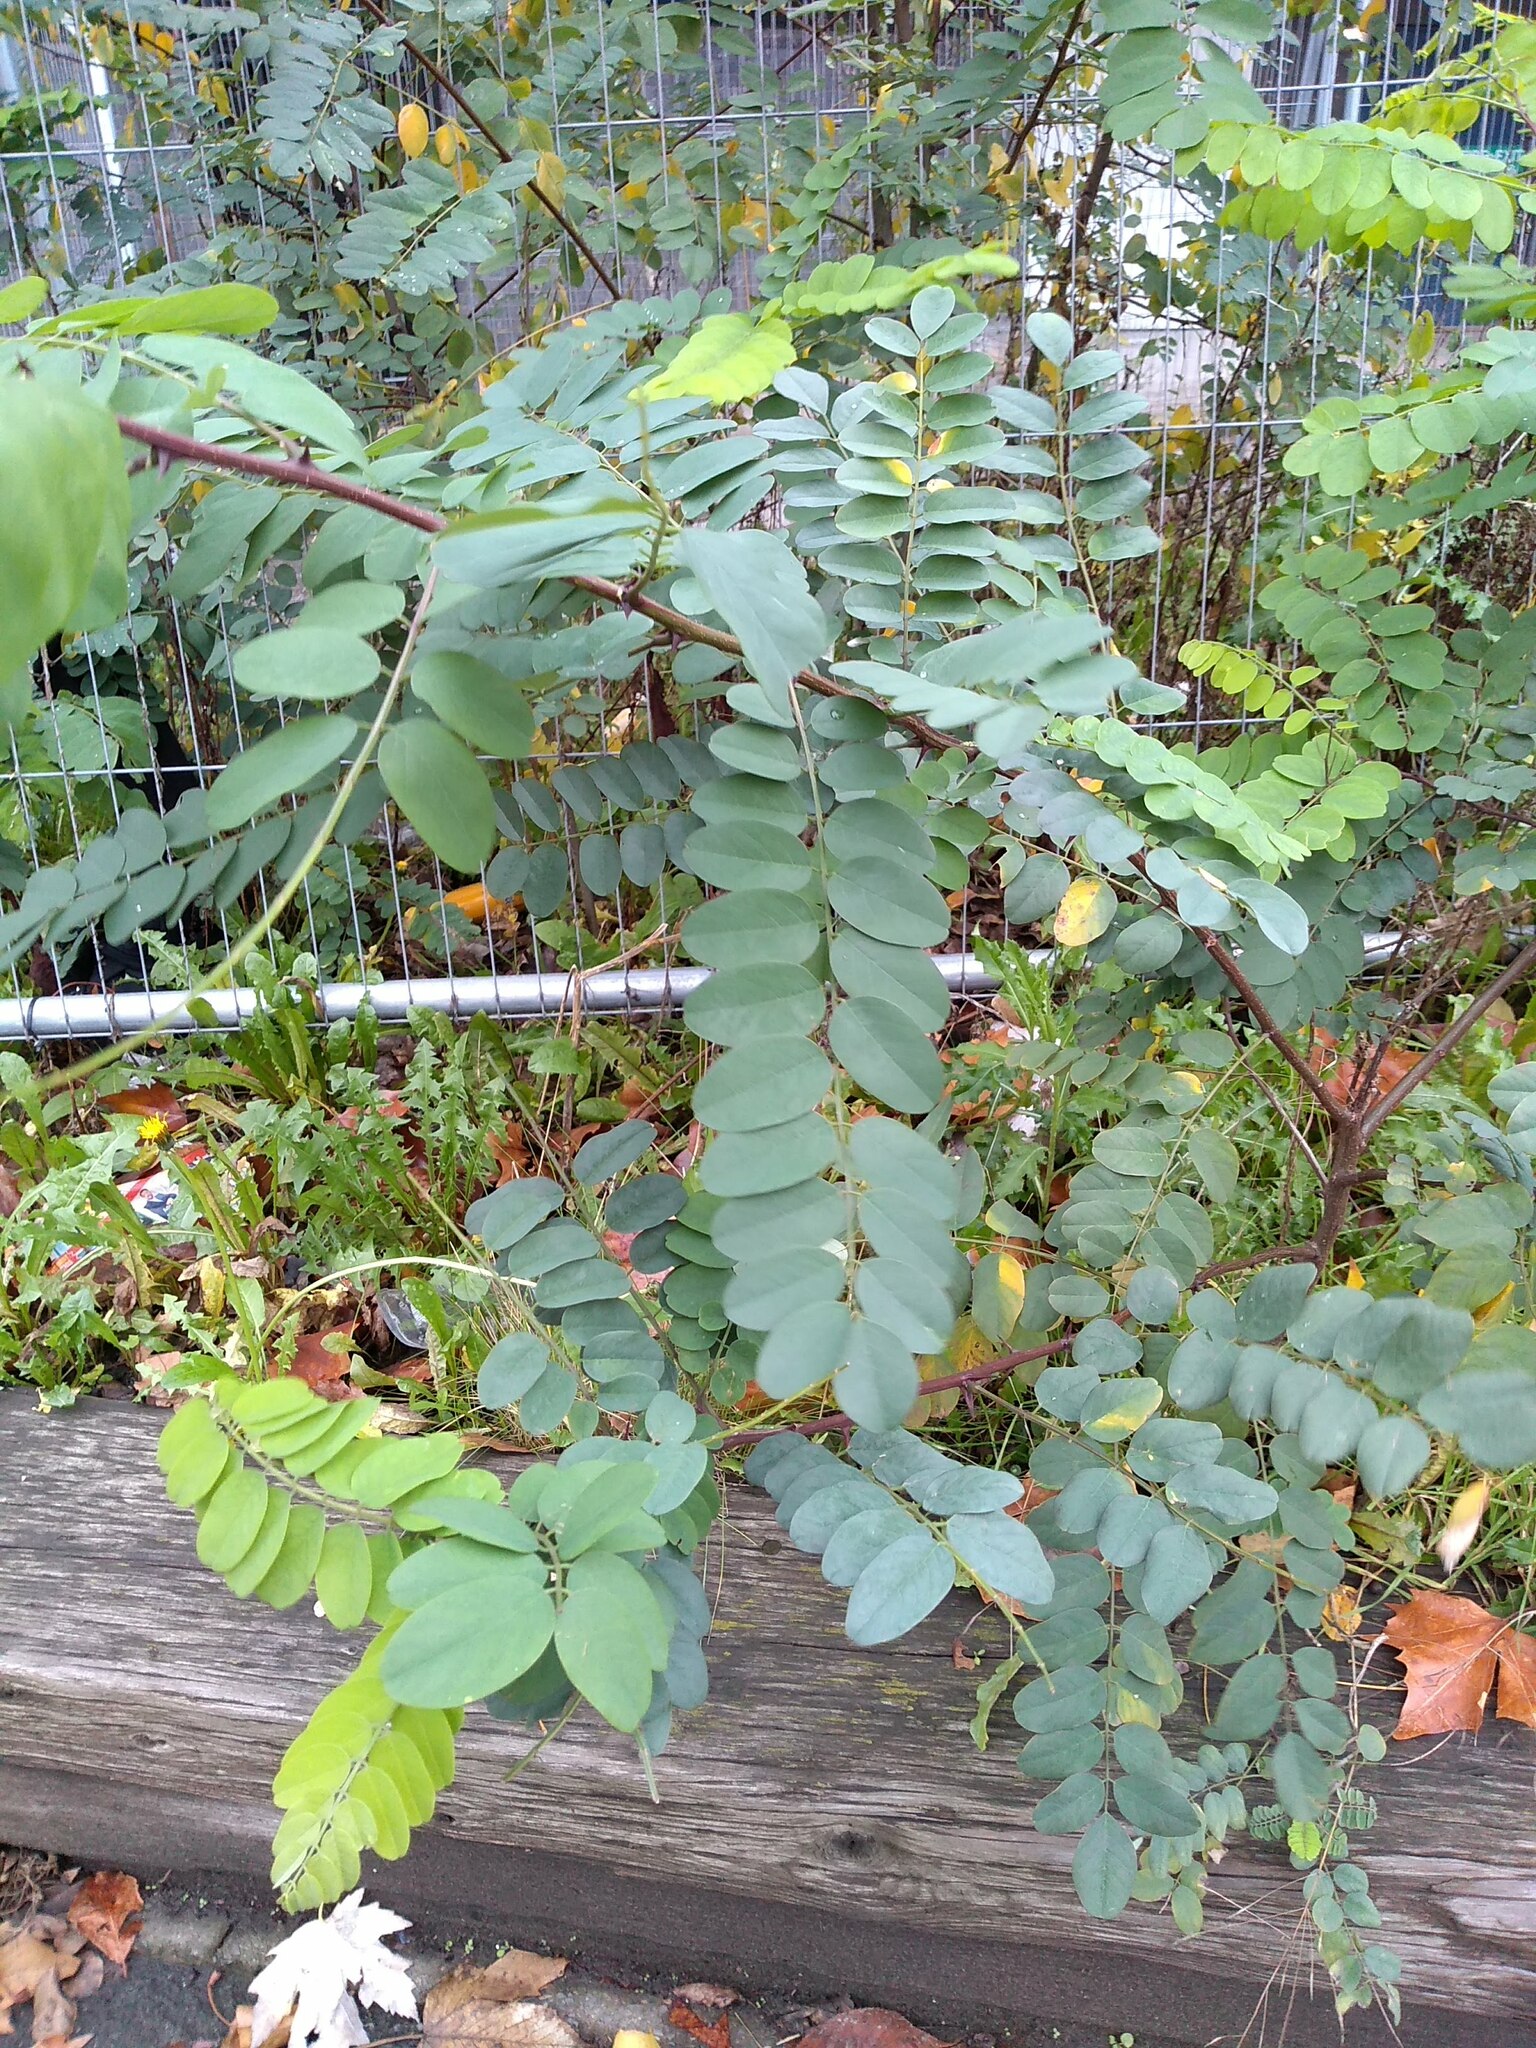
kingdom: Plantae
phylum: Tracheophyta
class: Magnoliopsida
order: Fabales
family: Fabaceae
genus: Robinia
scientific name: Robinia pseudoacacia
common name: Black locust
